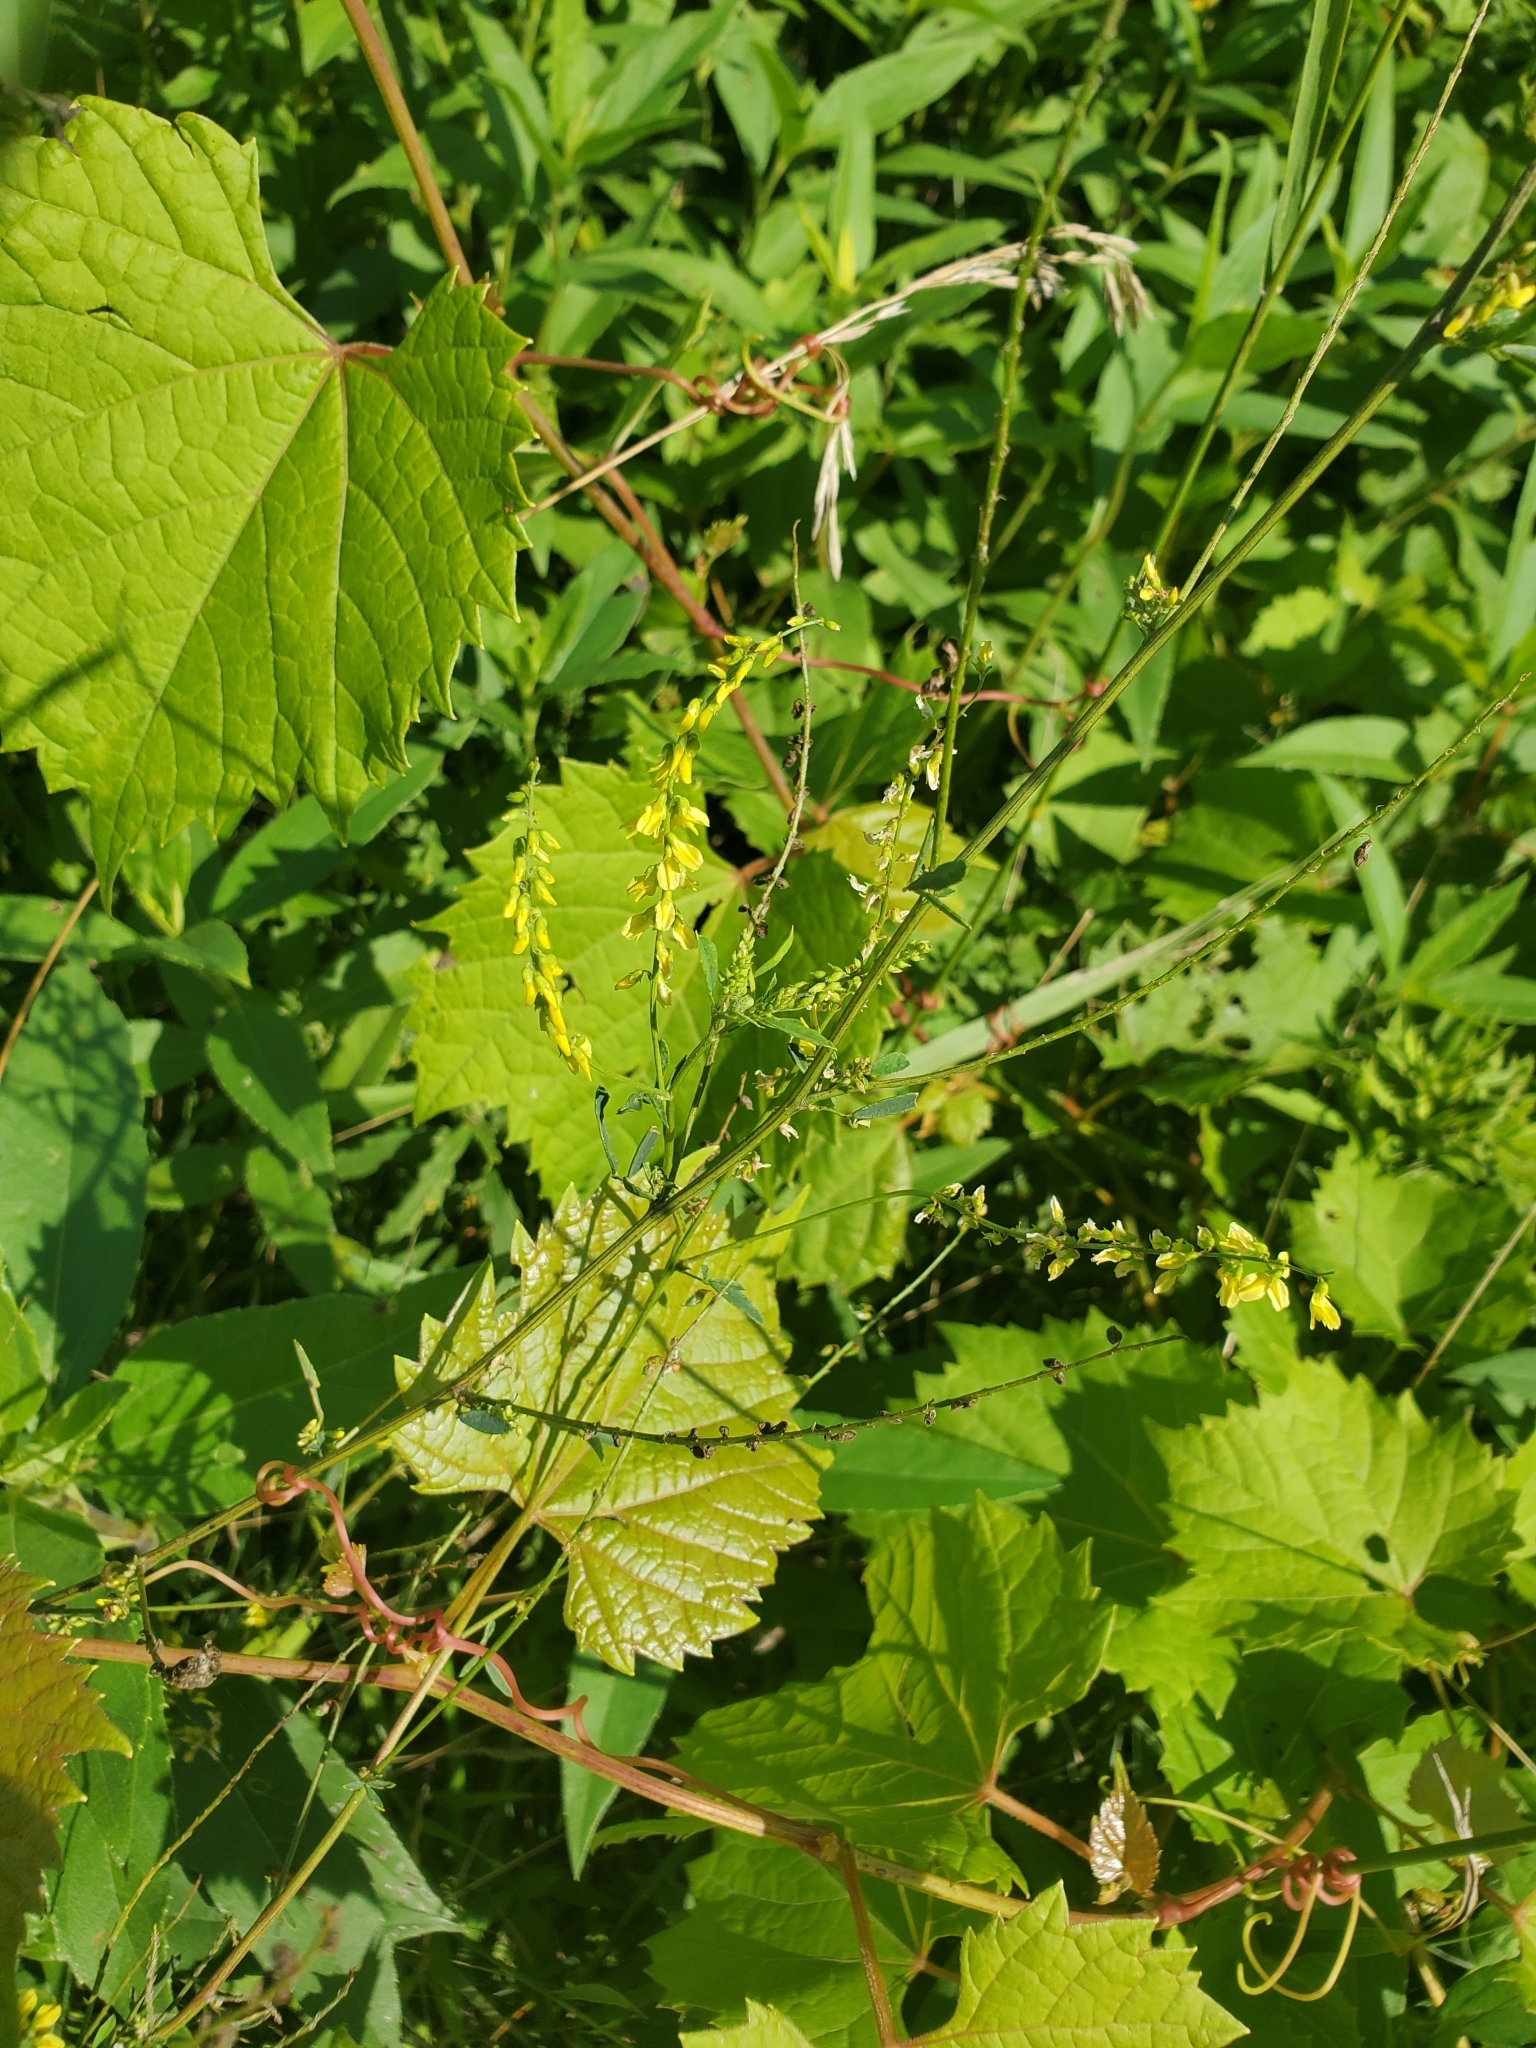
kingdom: Plantae
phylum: Tracheophyta
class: Magnoliopsida
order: Fabales
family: Fabaceae
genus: Melilotus
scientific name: Melilotus officinalis
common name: Sweetclover
